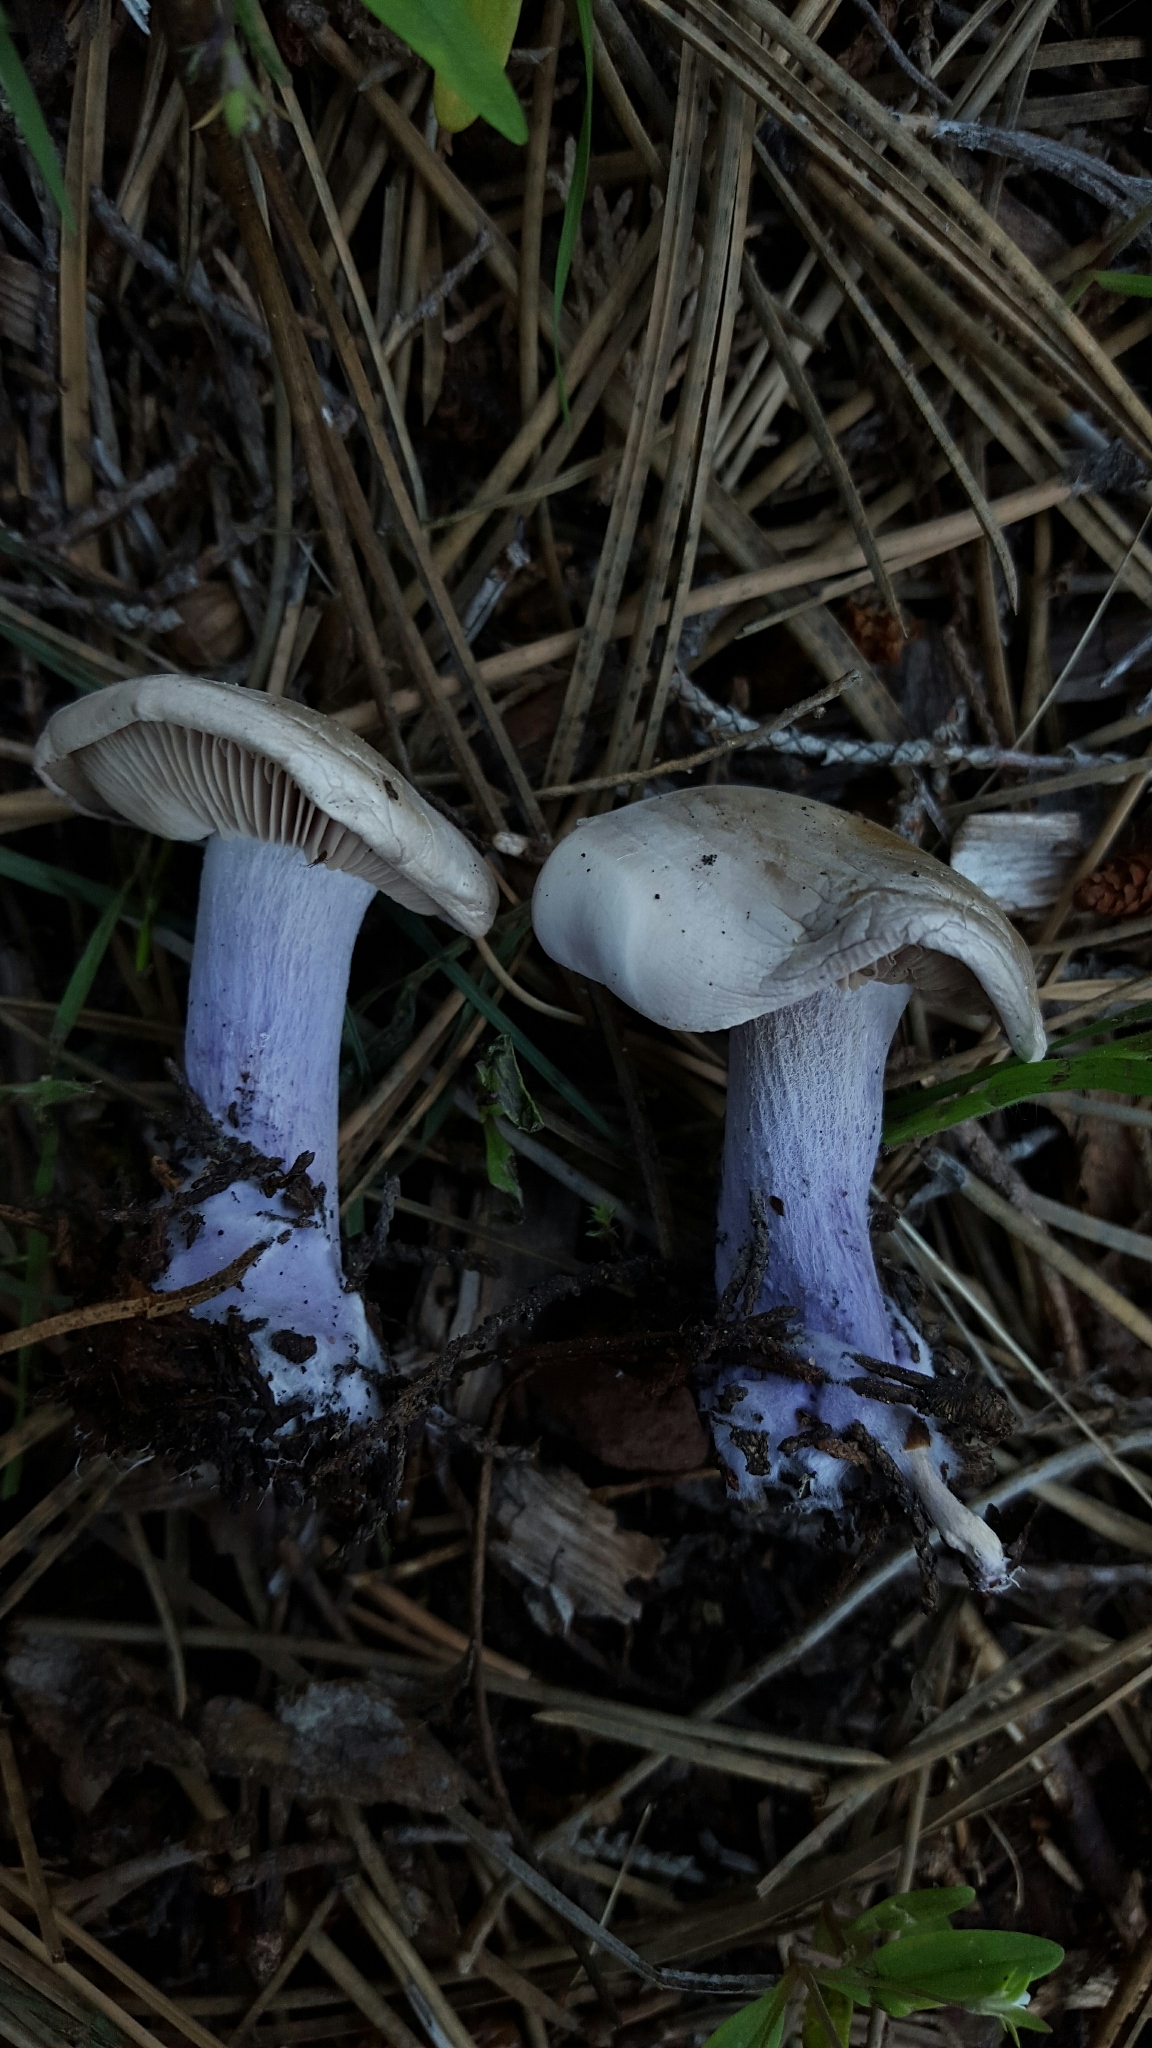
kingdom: Fungi
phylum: Basidiomycota
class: Agaricomycetes
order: Agaricales
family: Tricholomataceae
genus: Collybia
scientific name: Collybia
